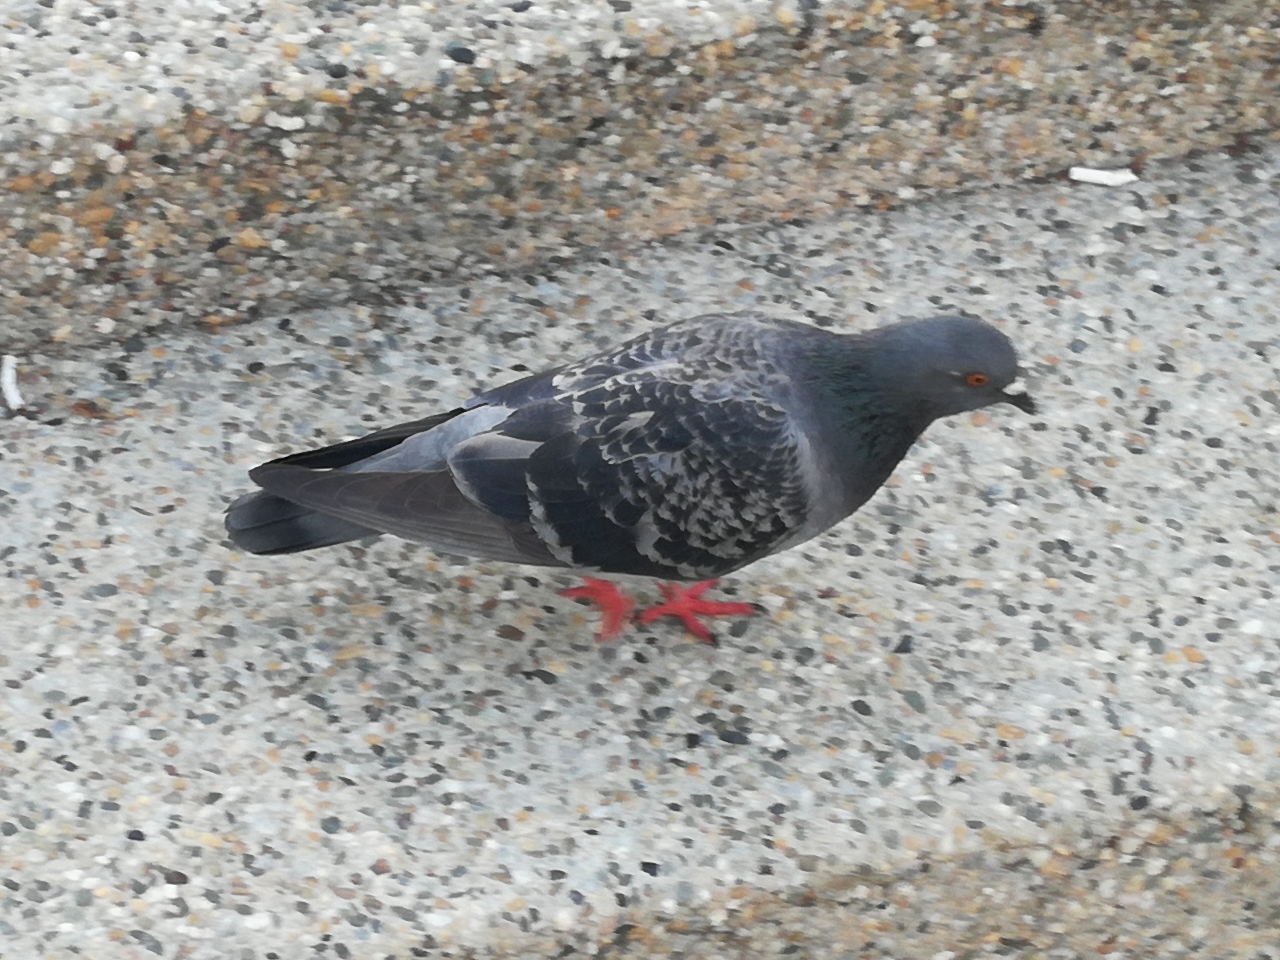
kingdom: Animalia
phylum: Chordata
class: Aves
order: Columbiformes
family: Columbidae
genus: Columba
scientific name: Columba livia
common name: Rock pigeon
